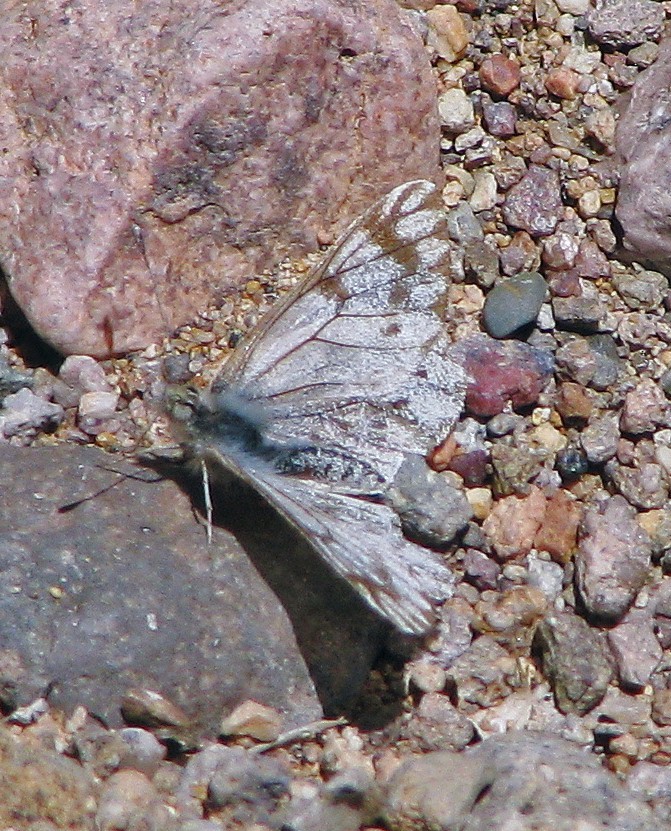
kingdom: Animalia
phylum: Arthropoda
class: Insecta
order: Lepidoptera
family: Pieridae
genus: Phulia
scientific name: Phulia nymphula
